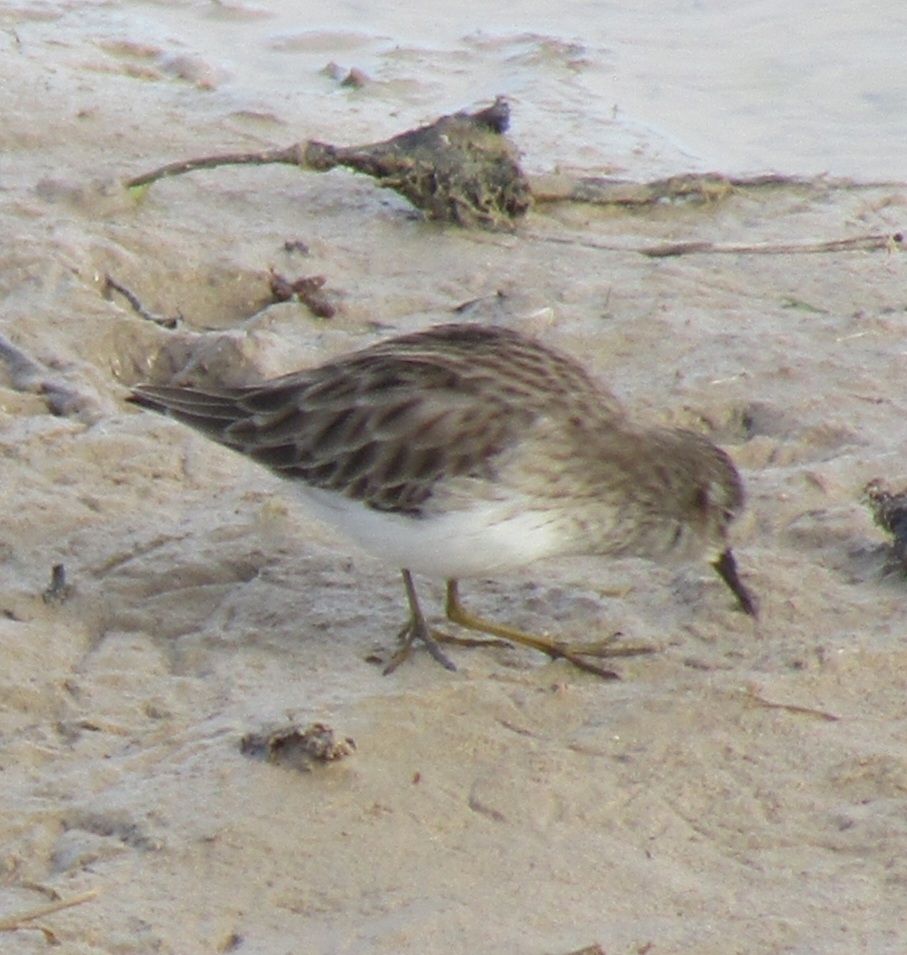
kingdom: Animalia
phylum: Chordata
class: Aves
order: Charadriiformes
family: Scolopacidae
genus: Calidris
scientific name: Calidris minutilla
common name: Least sandpiper
